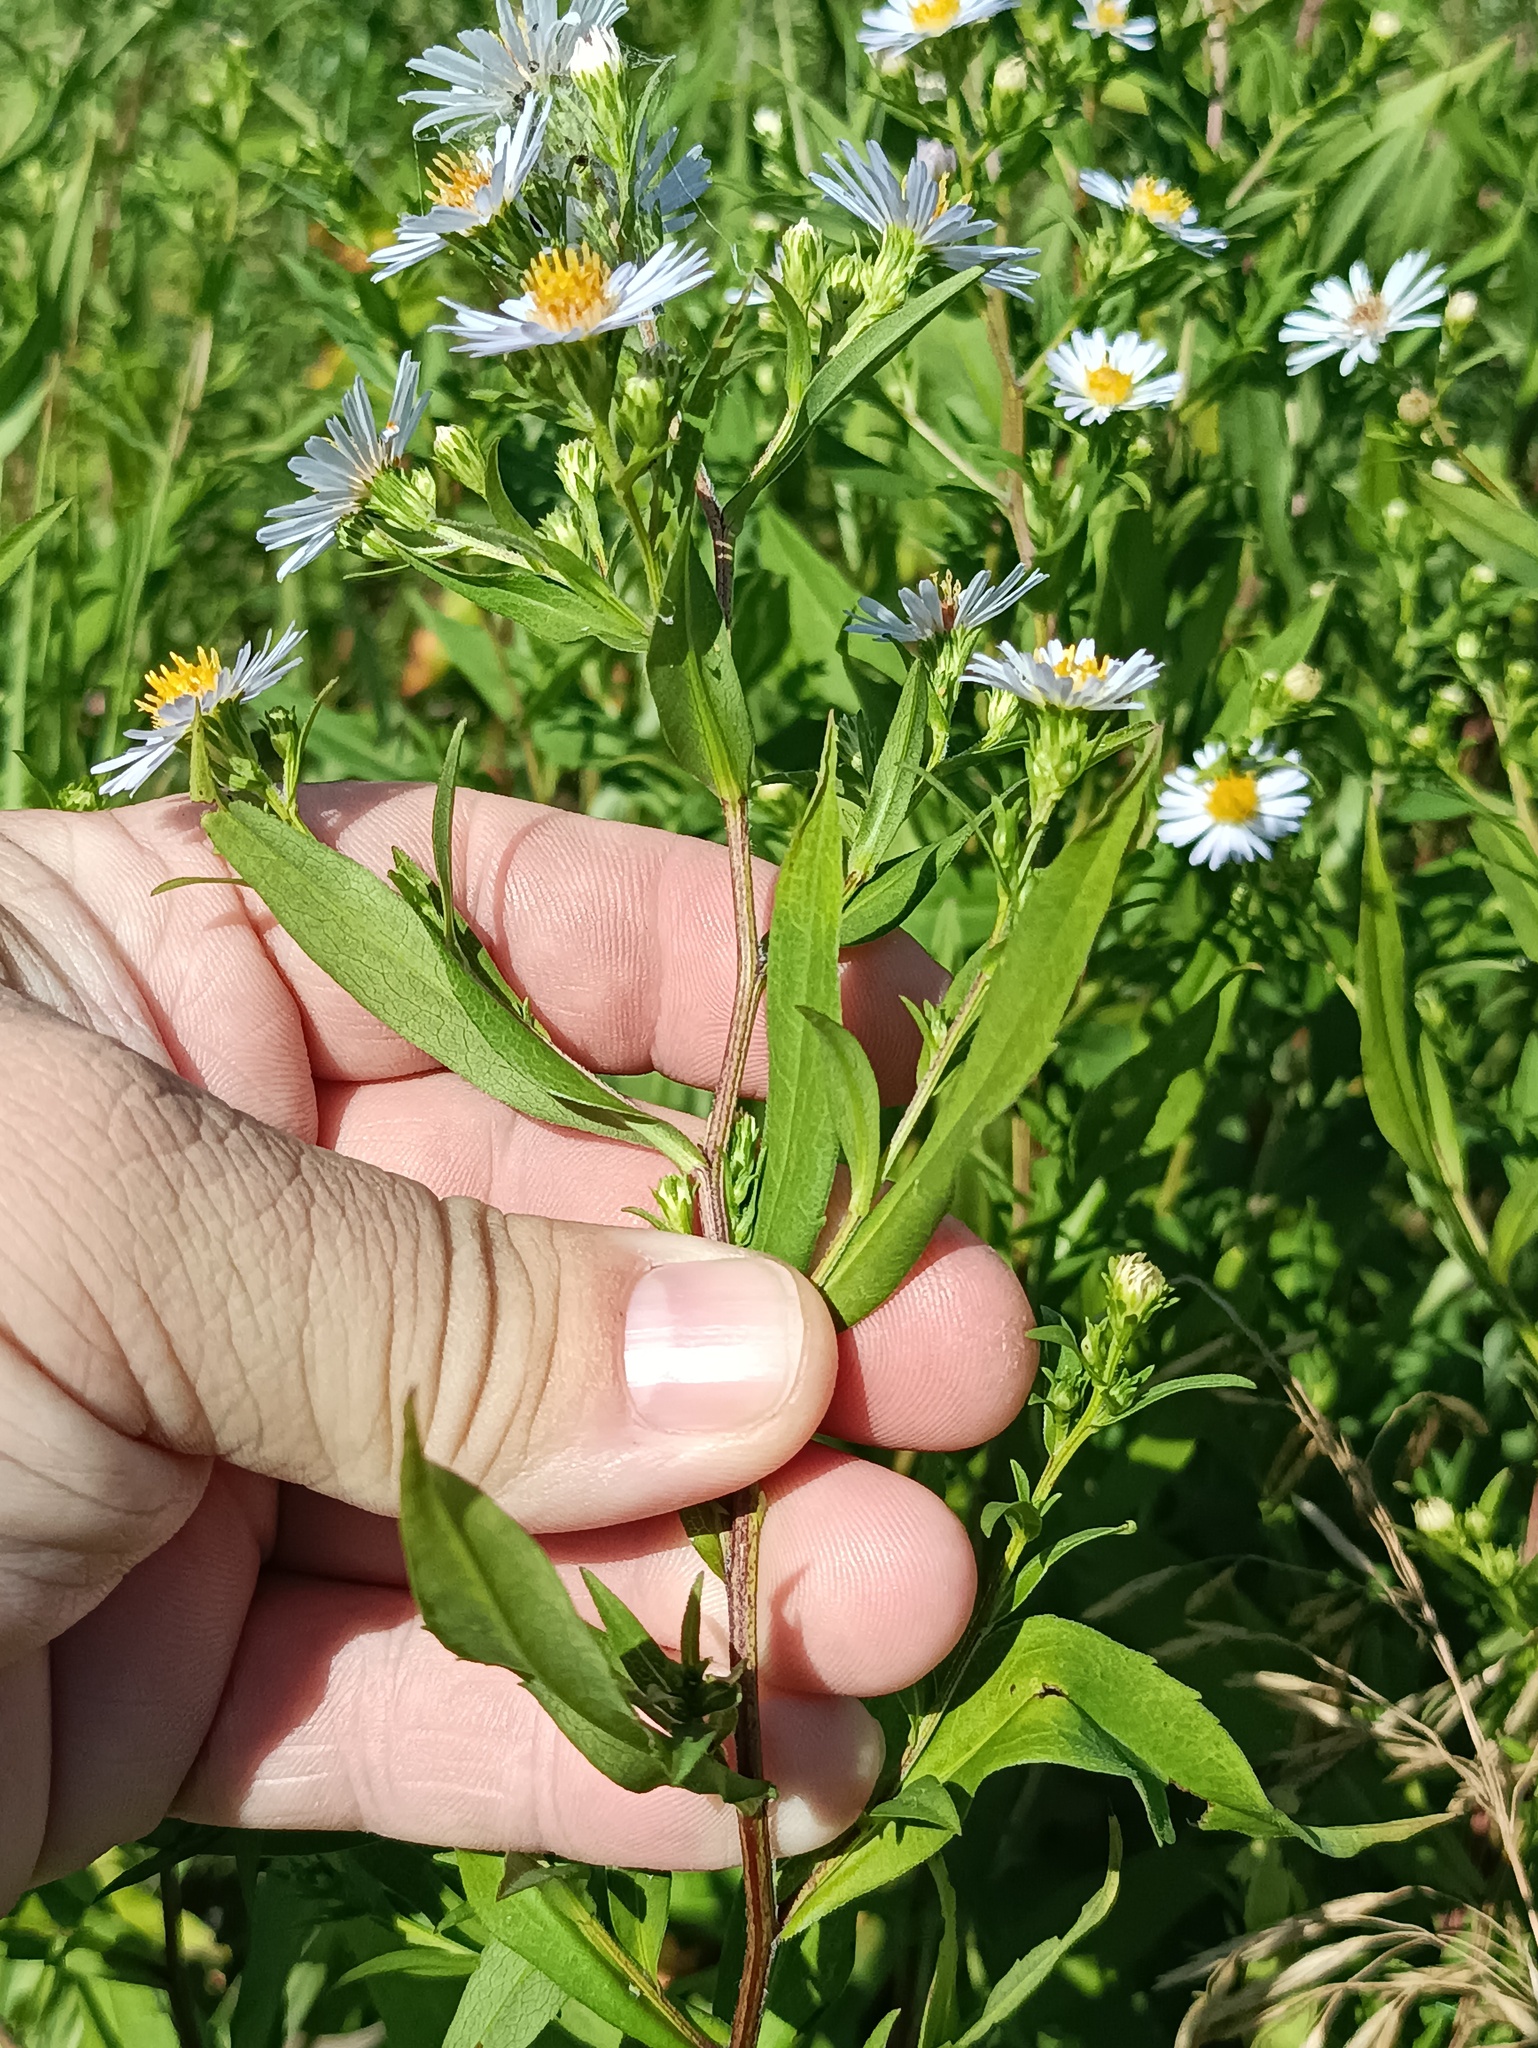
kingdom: Plantae
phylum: Tracheophyta
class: Magnoliopsida
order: Asterales
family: Asteraceae
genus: Symphyotrichum
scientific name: Symphyotrichum novi-belgii
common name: Michaelmas daisy
